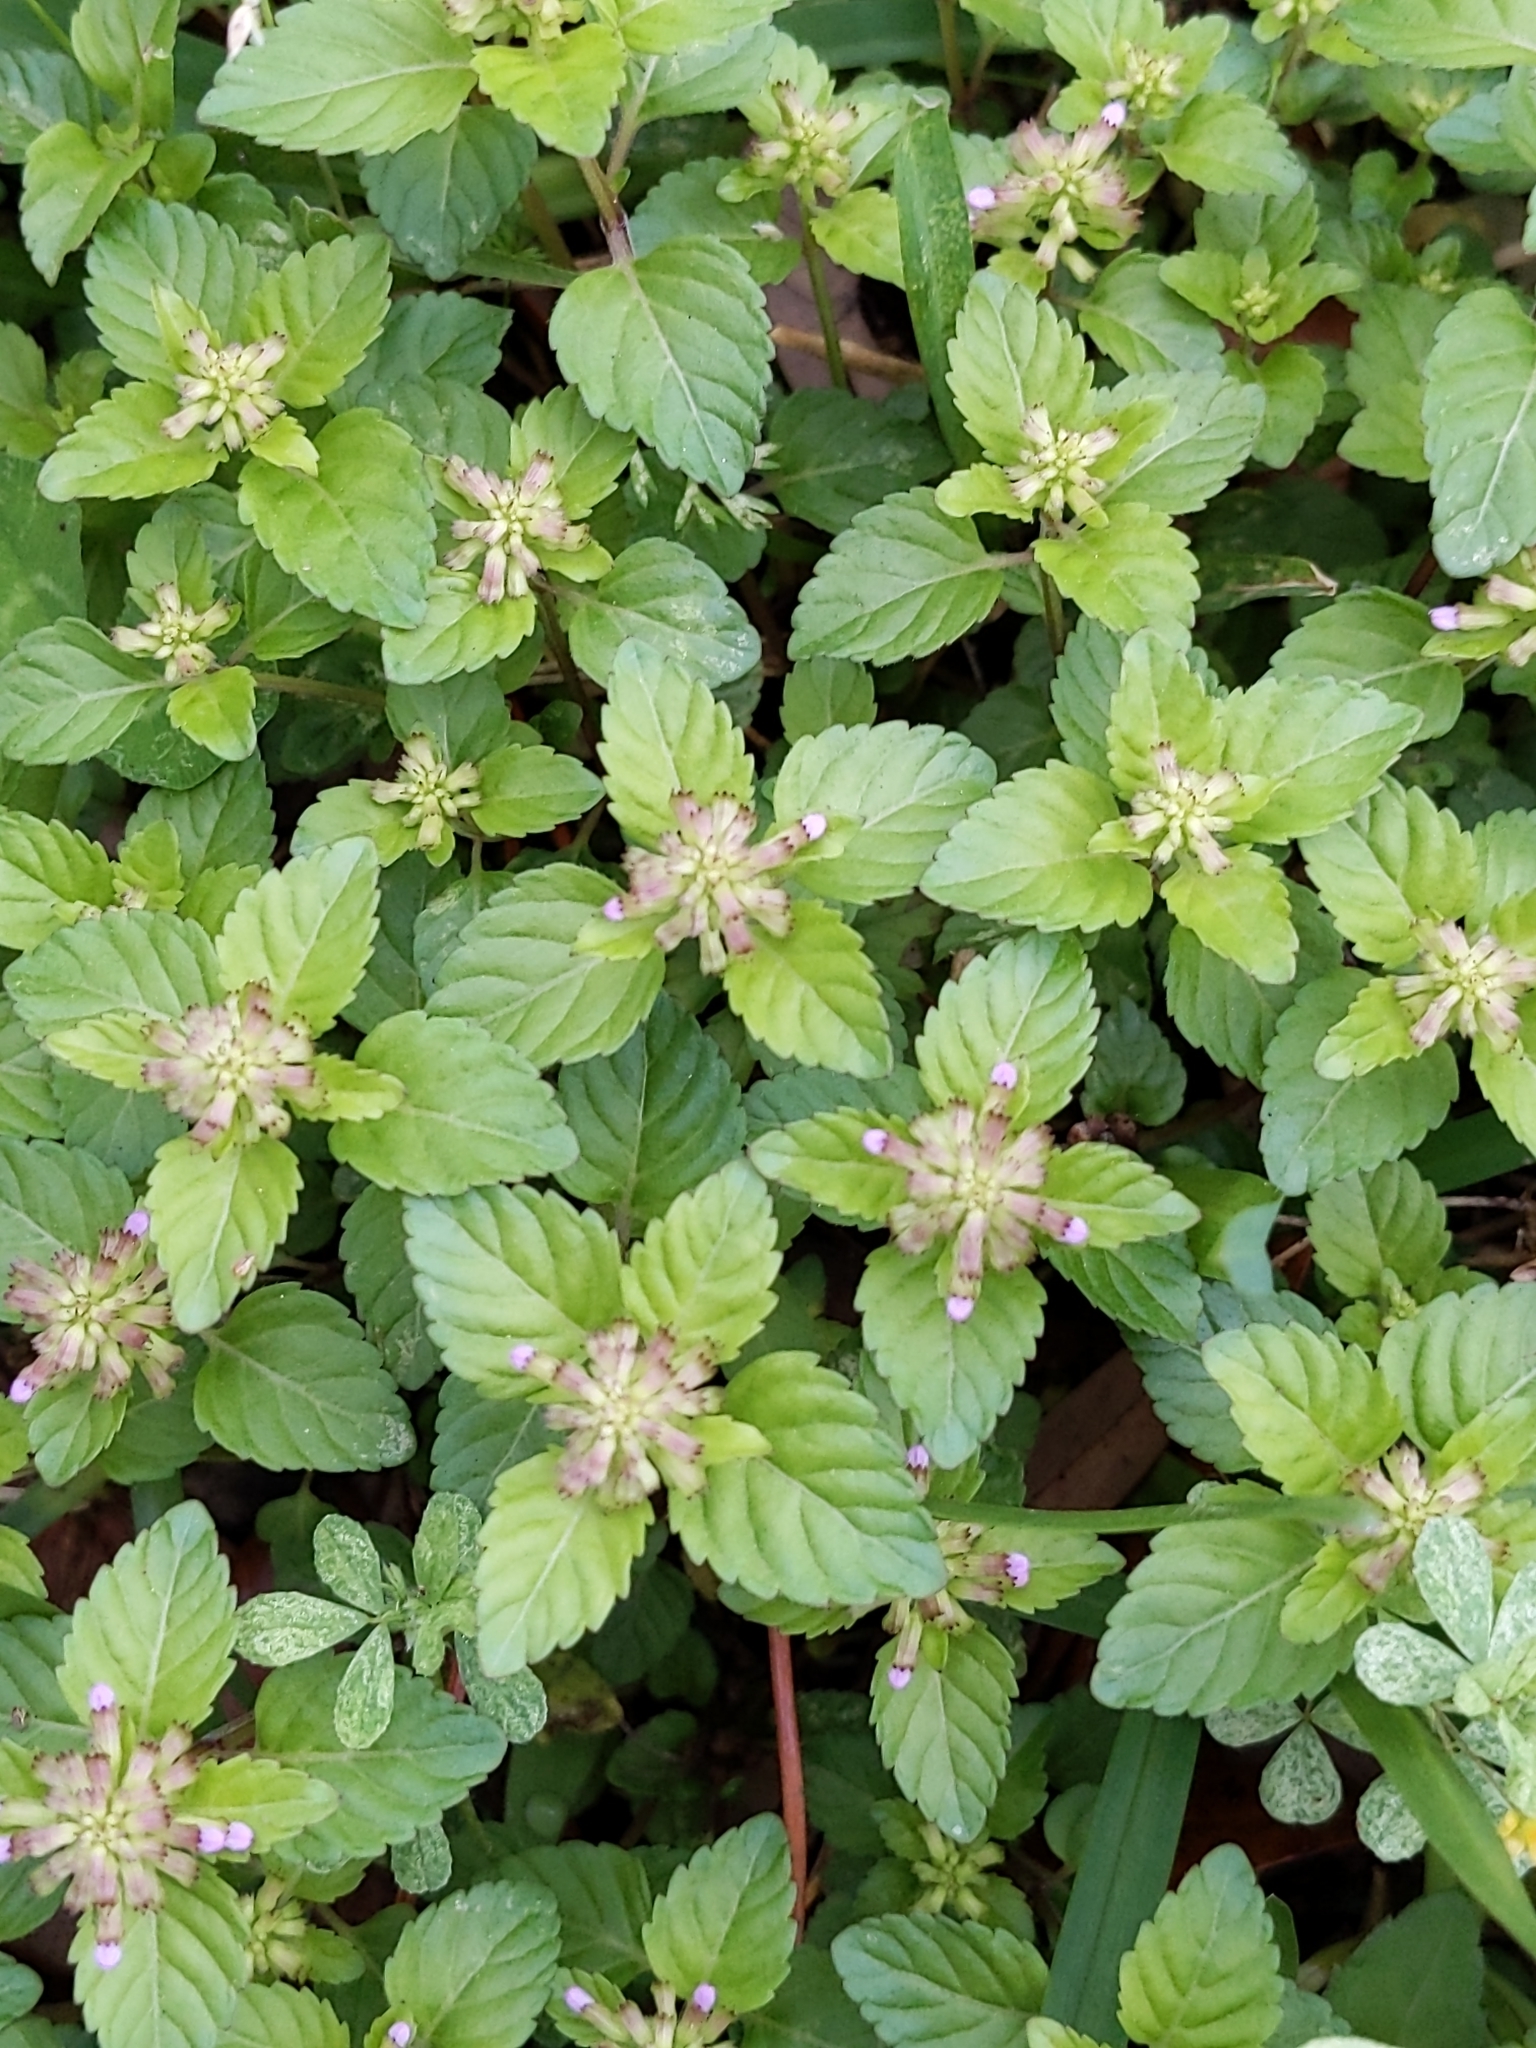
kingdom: Plantae
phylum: Tracheophyta
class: Magnoliopsida
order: Lamiales
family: Lamiaceae
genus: Clinopodium
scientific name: Clinopodium gracile
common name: Slender wild basil
